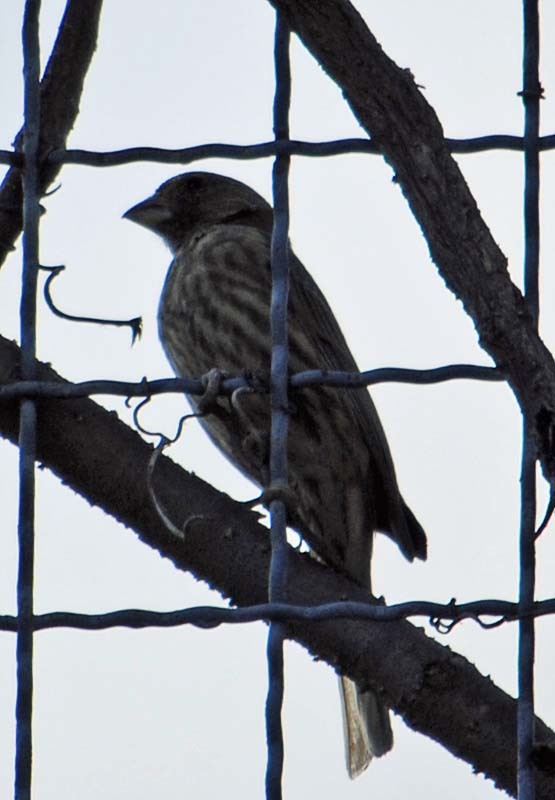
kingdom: Animalia
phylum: Chordata
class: Aves
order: Passeriformes
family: Fringillidae
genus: Haemorhous
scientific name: Haemorhous mexicanus
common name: House finch
